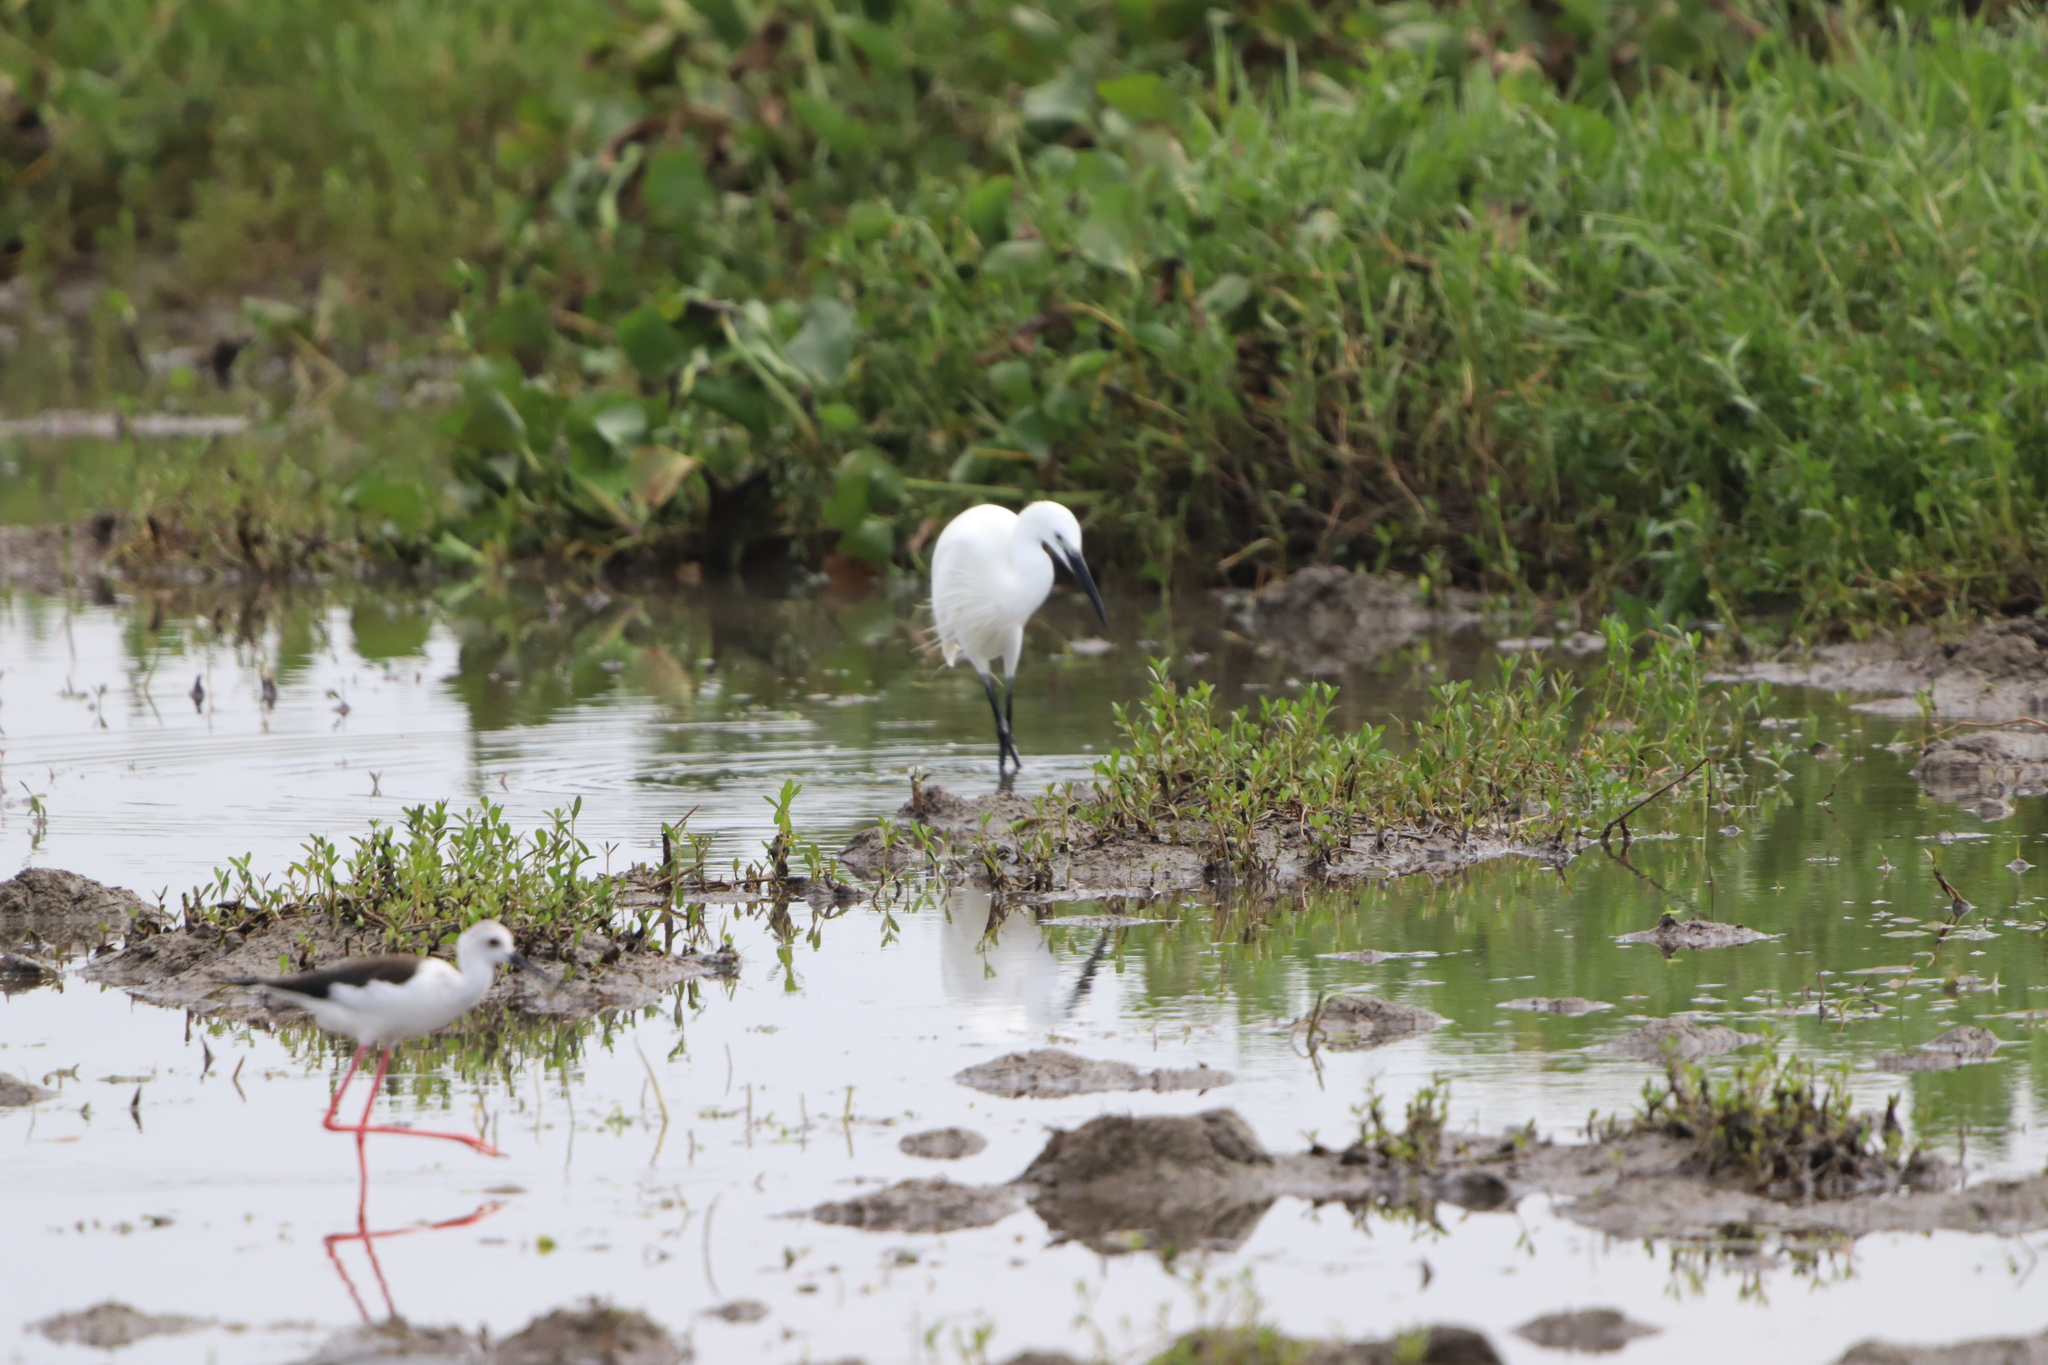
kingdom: Animalia
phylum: Chordata
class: Aves
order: Pelecaniformes
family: Ardeidae
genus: Egretta
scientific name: Egretta garzetta
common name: Little egret
